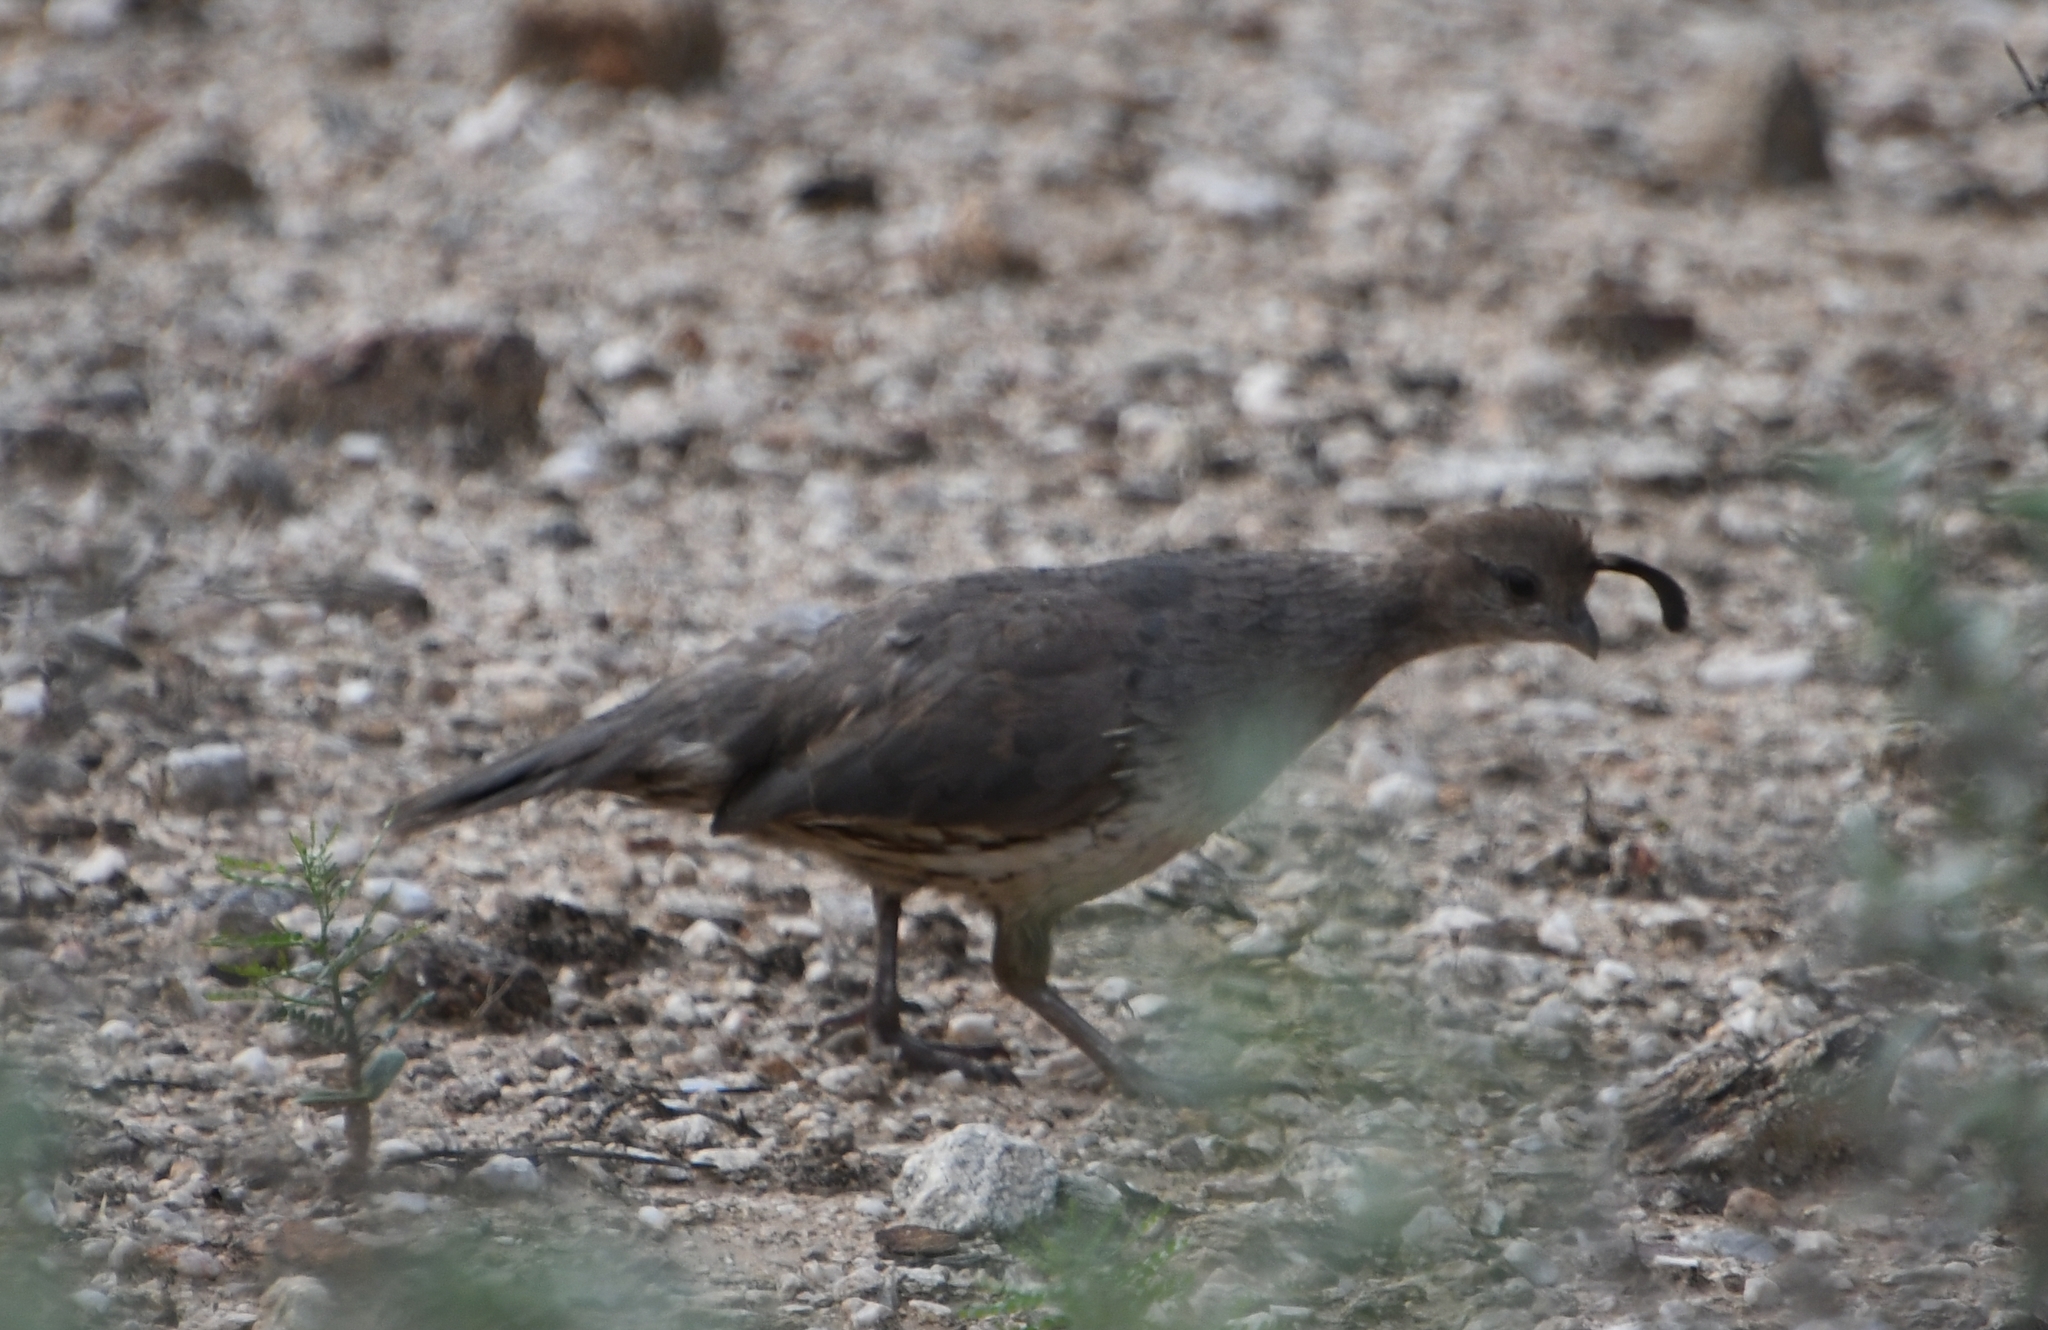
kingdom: Animalia
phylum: Chordata
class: Aves
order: Galliformes
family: Odontophoridae
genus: Callipepla
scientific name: Callipepla gambelii
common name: Gambel's quail
